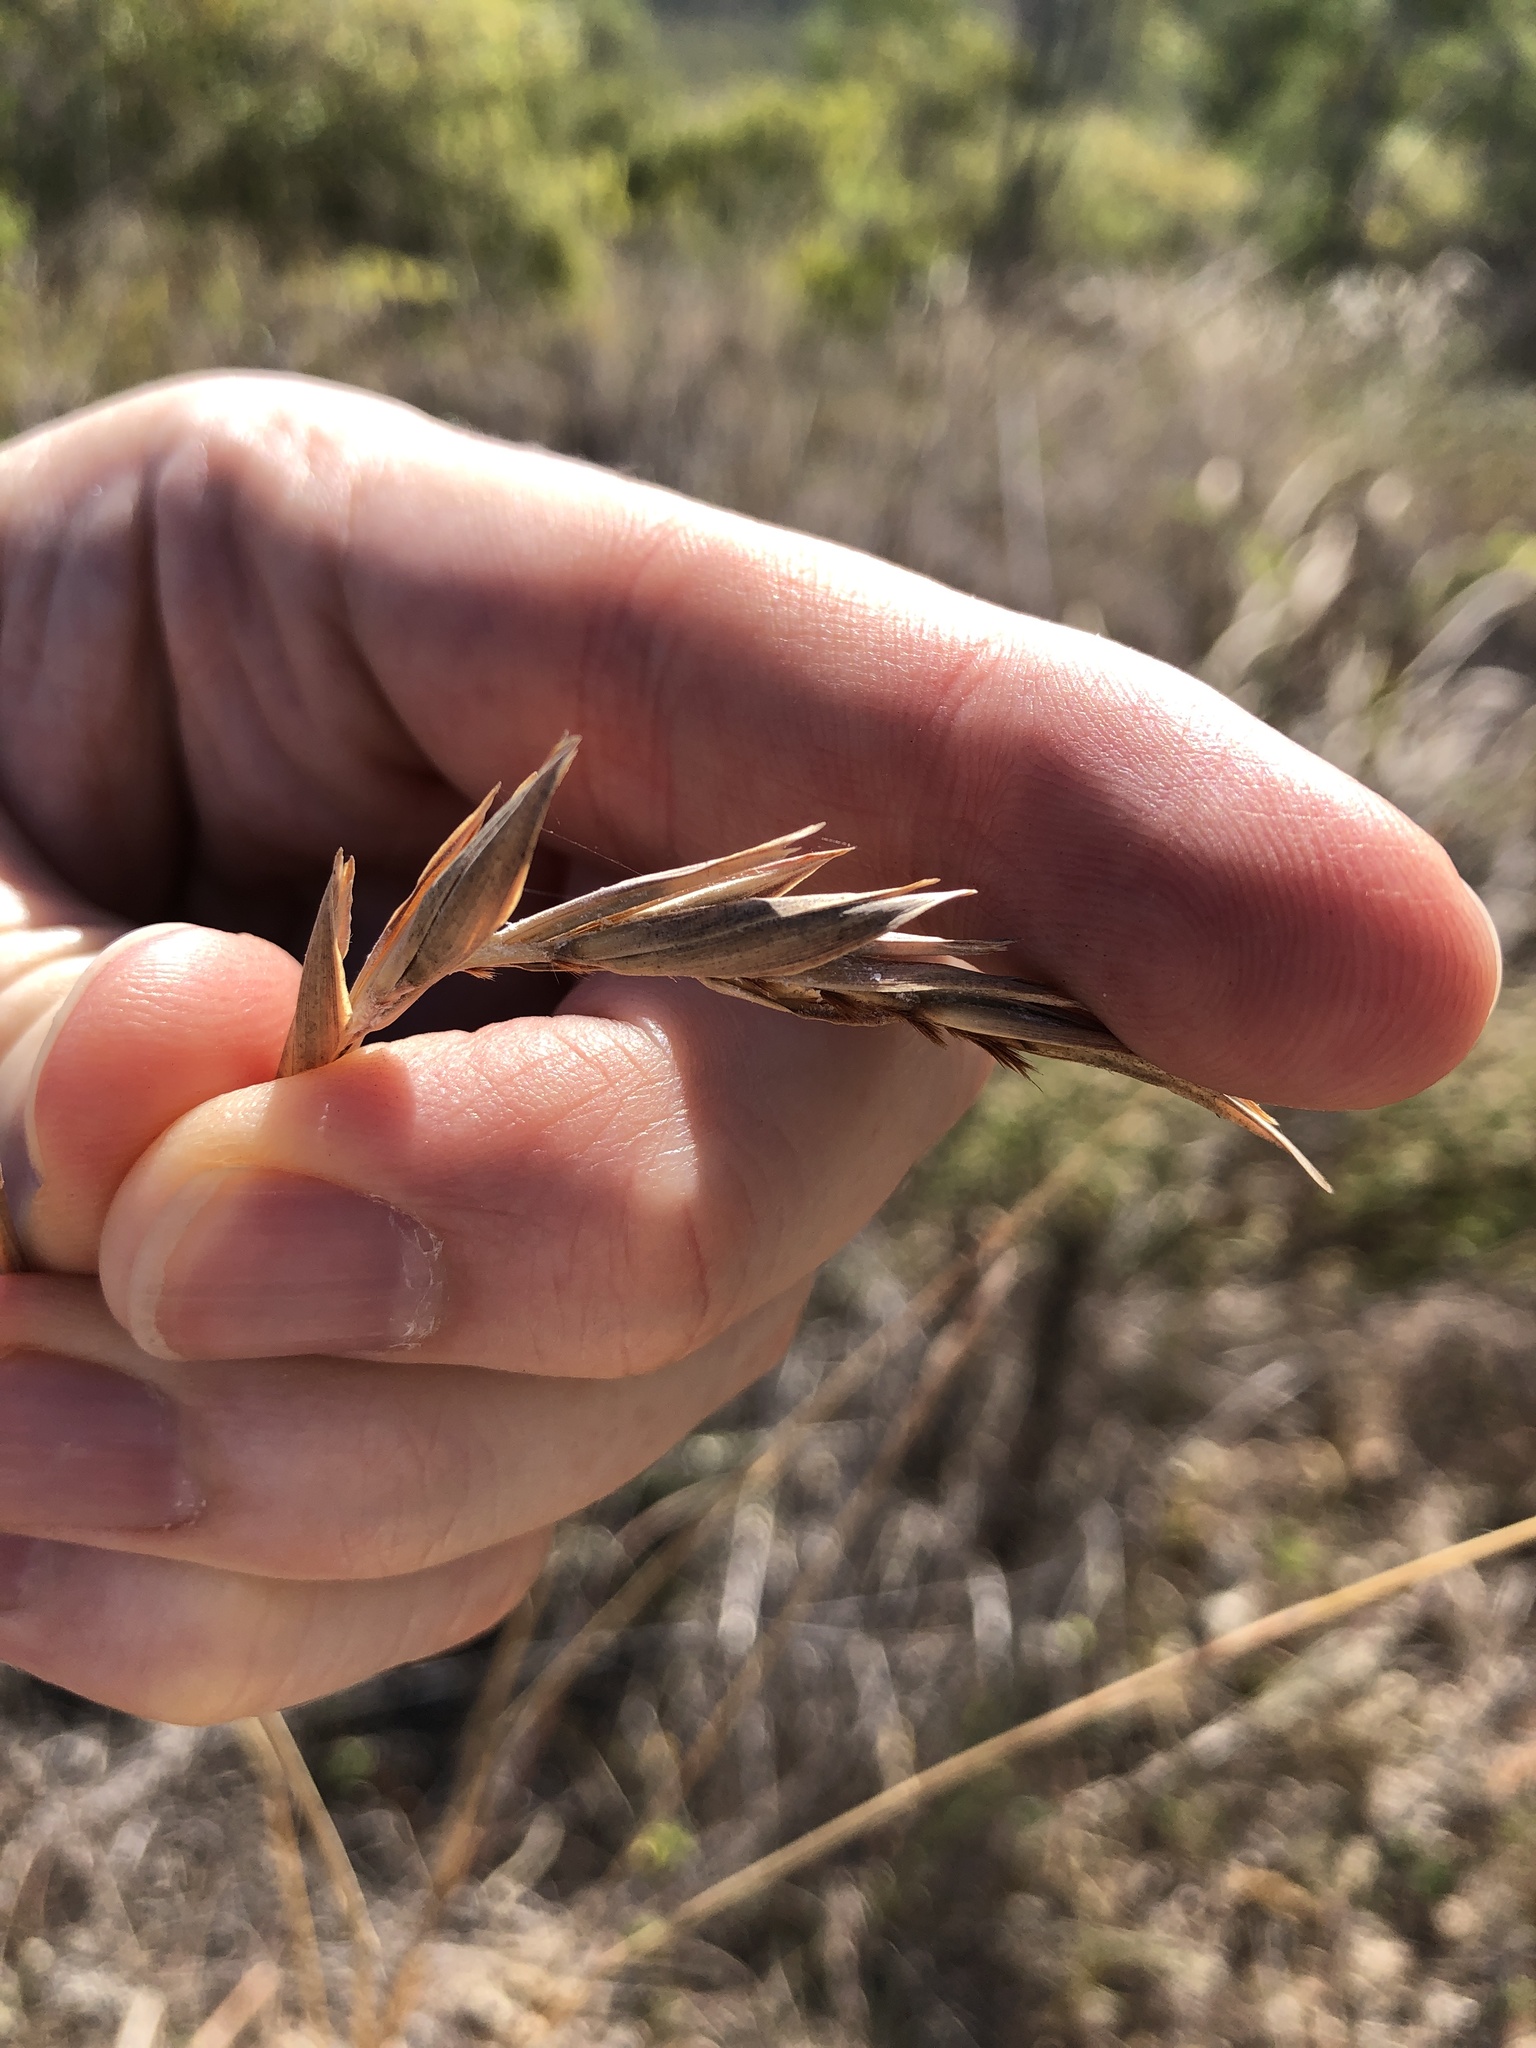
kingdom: Plantae
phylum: Tracheophyta
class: Liliopsida
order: Poales
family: Poaceae
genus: Heteropogon
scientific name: Heteropogon triticeus
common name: Sugar grass
